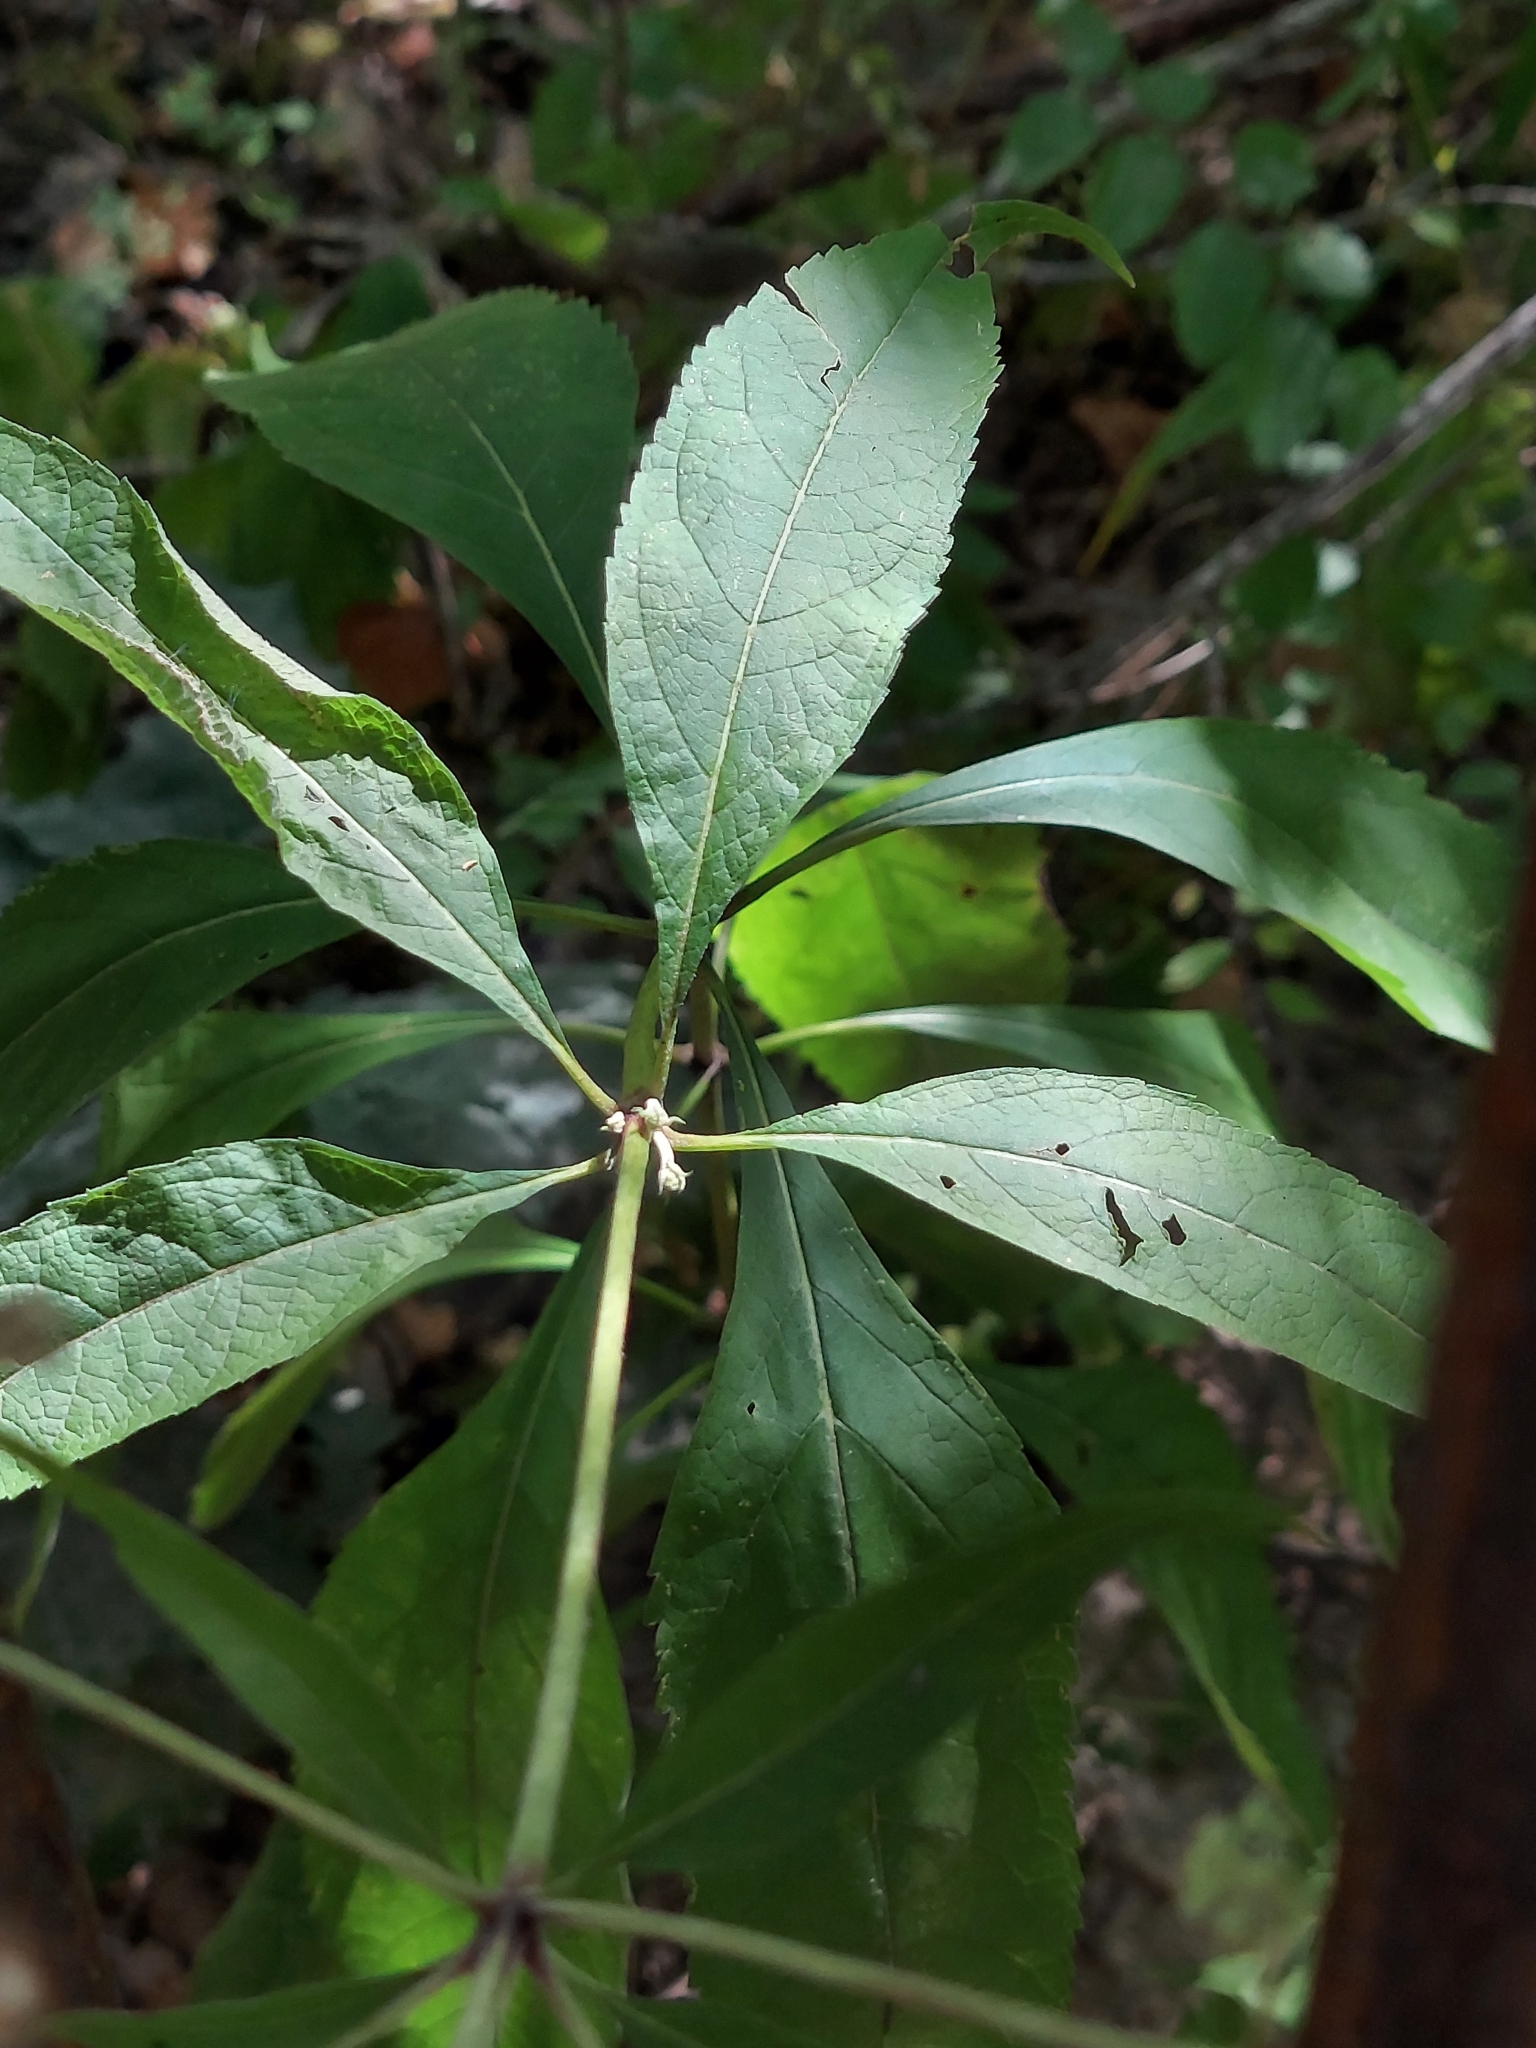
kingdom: Plantae
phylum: Tracheophyta
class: Magnoliopsida
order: Asterales
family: Asteraceae
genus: Eutrochium
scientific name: Eutrochium purpureum
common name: Gravelroot
